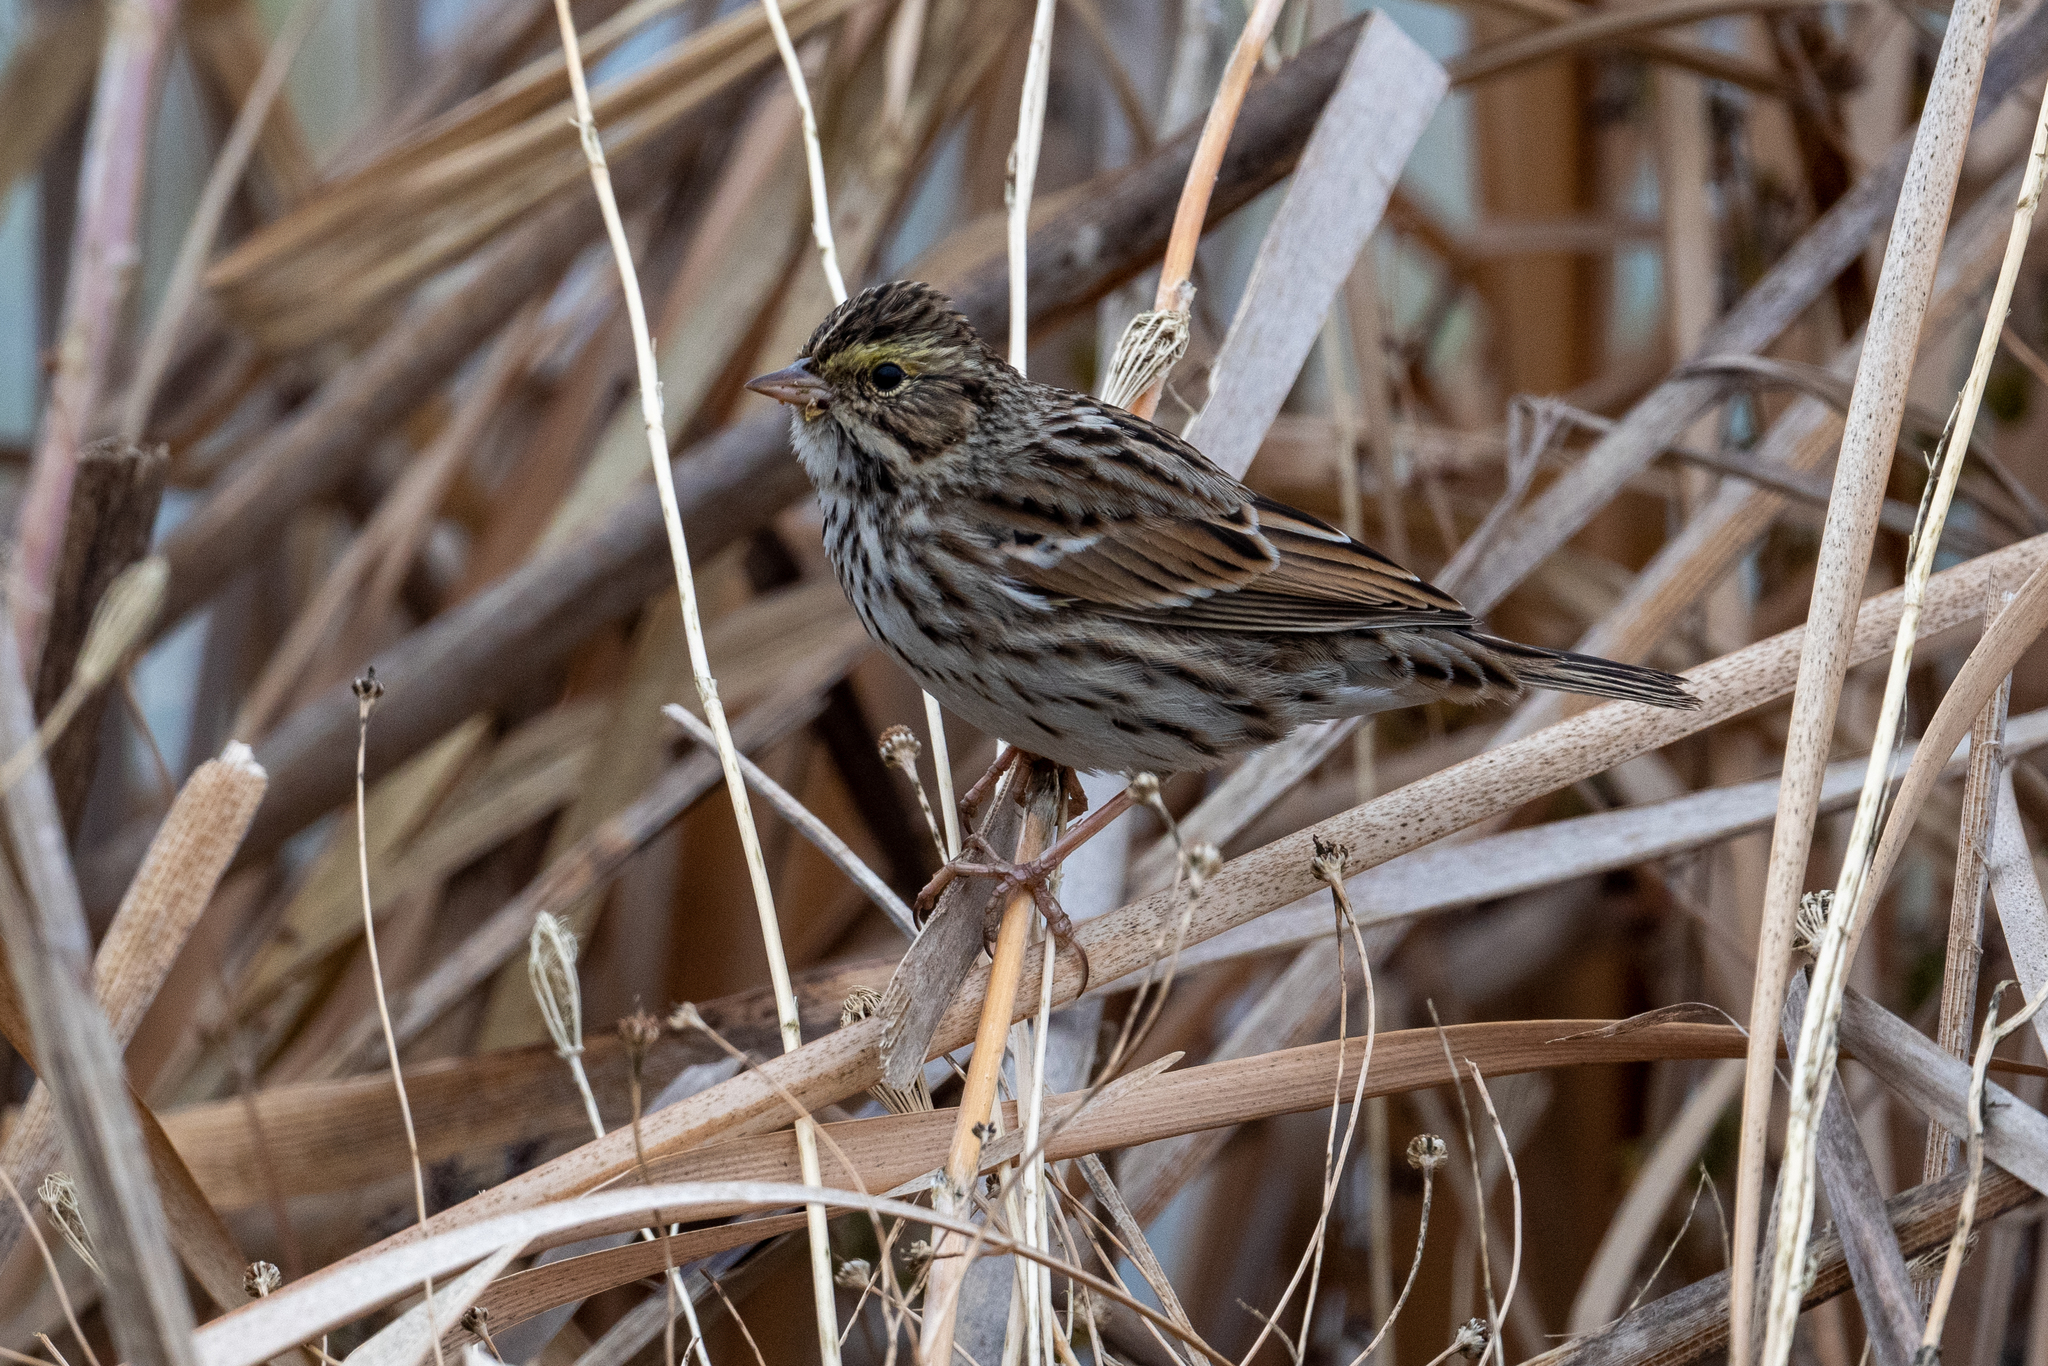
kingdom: Animalia
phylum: Chordata
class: Aves
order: Passeriformes
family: Passerellidae
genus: Passerculus
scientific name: Passerculus sandwichensis
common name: Savannah sparrow
